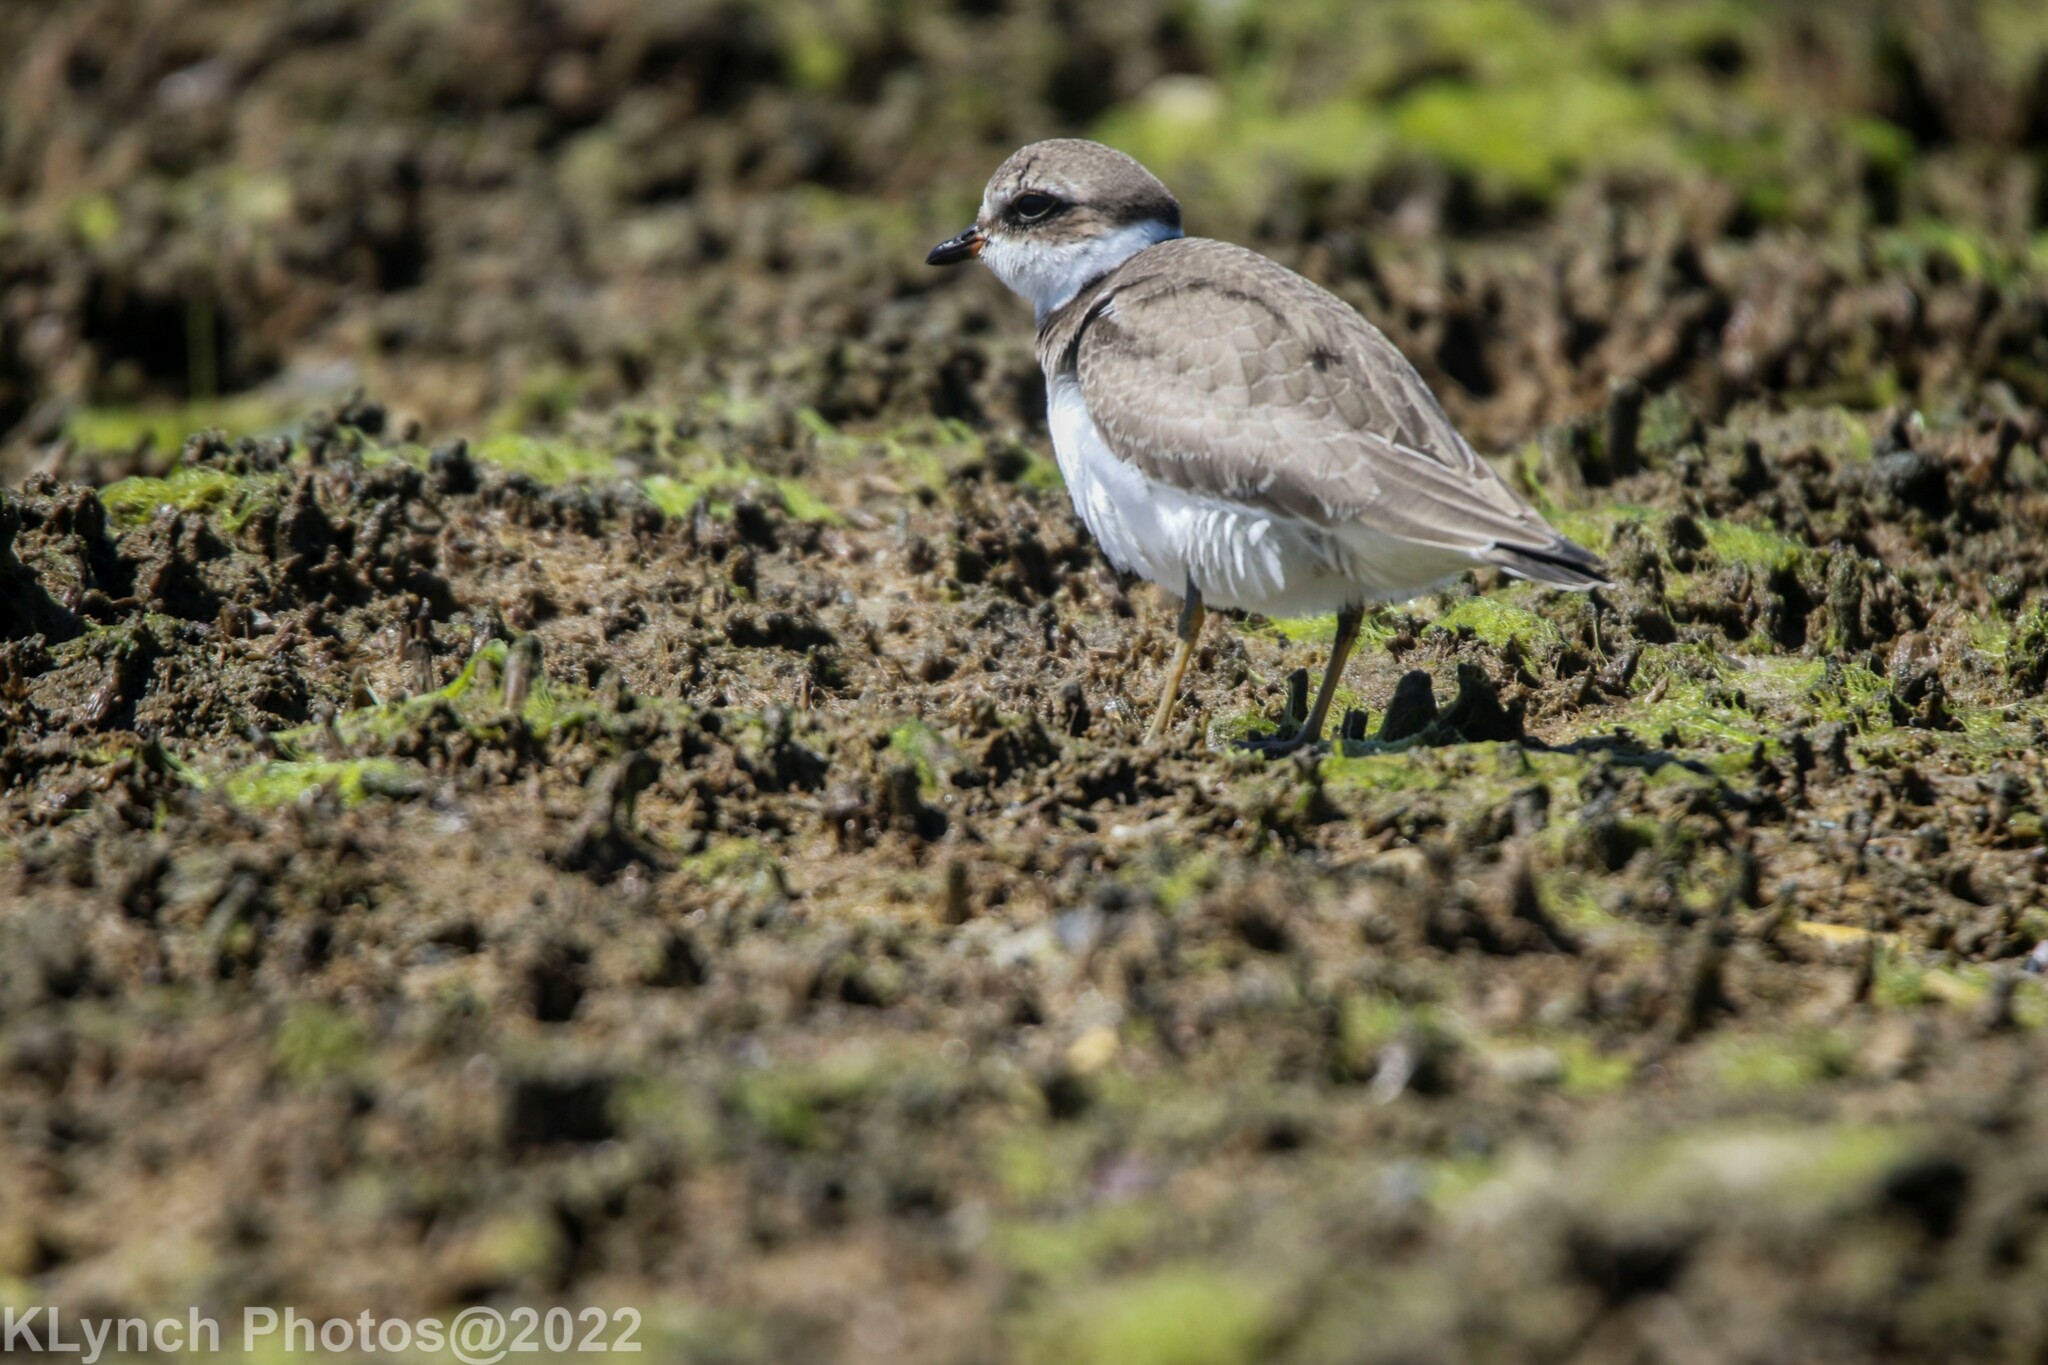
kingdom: Animalia
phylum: Chordata
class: Aves
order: Charadriiformes
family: Charadriidae
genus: Charadrius
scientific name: Charadrius semipalmatus
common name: Semipalmated plover
